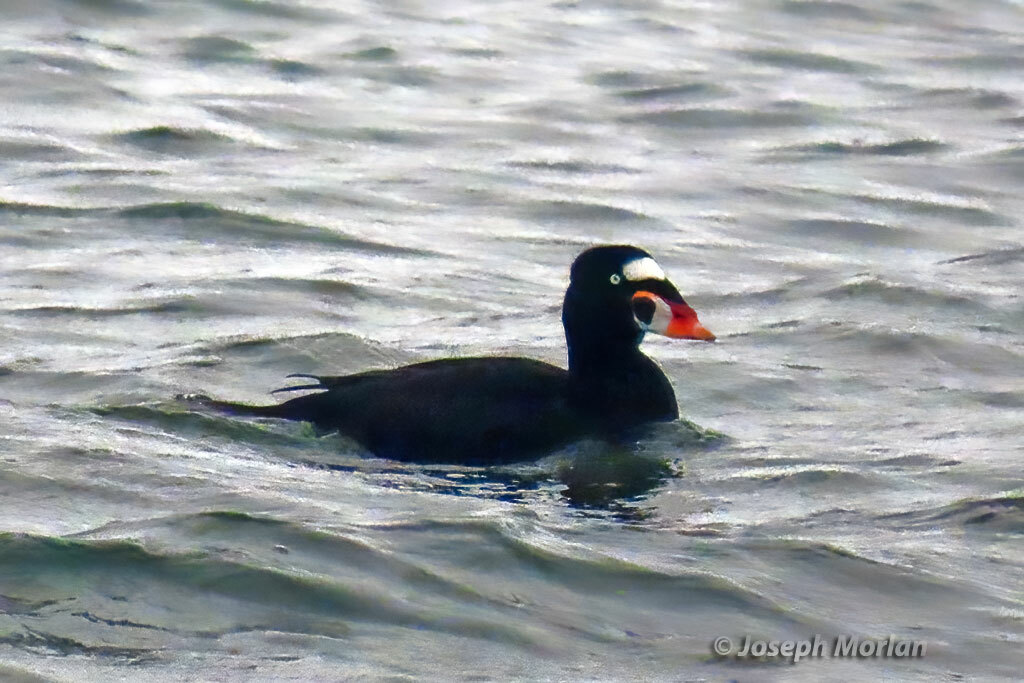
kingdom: Animalia
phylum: Chordata
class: Aves
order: Anseriformes
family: Anatidae
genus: Melanitta
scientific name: Melanitta perspicillata
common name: Surf scoter
